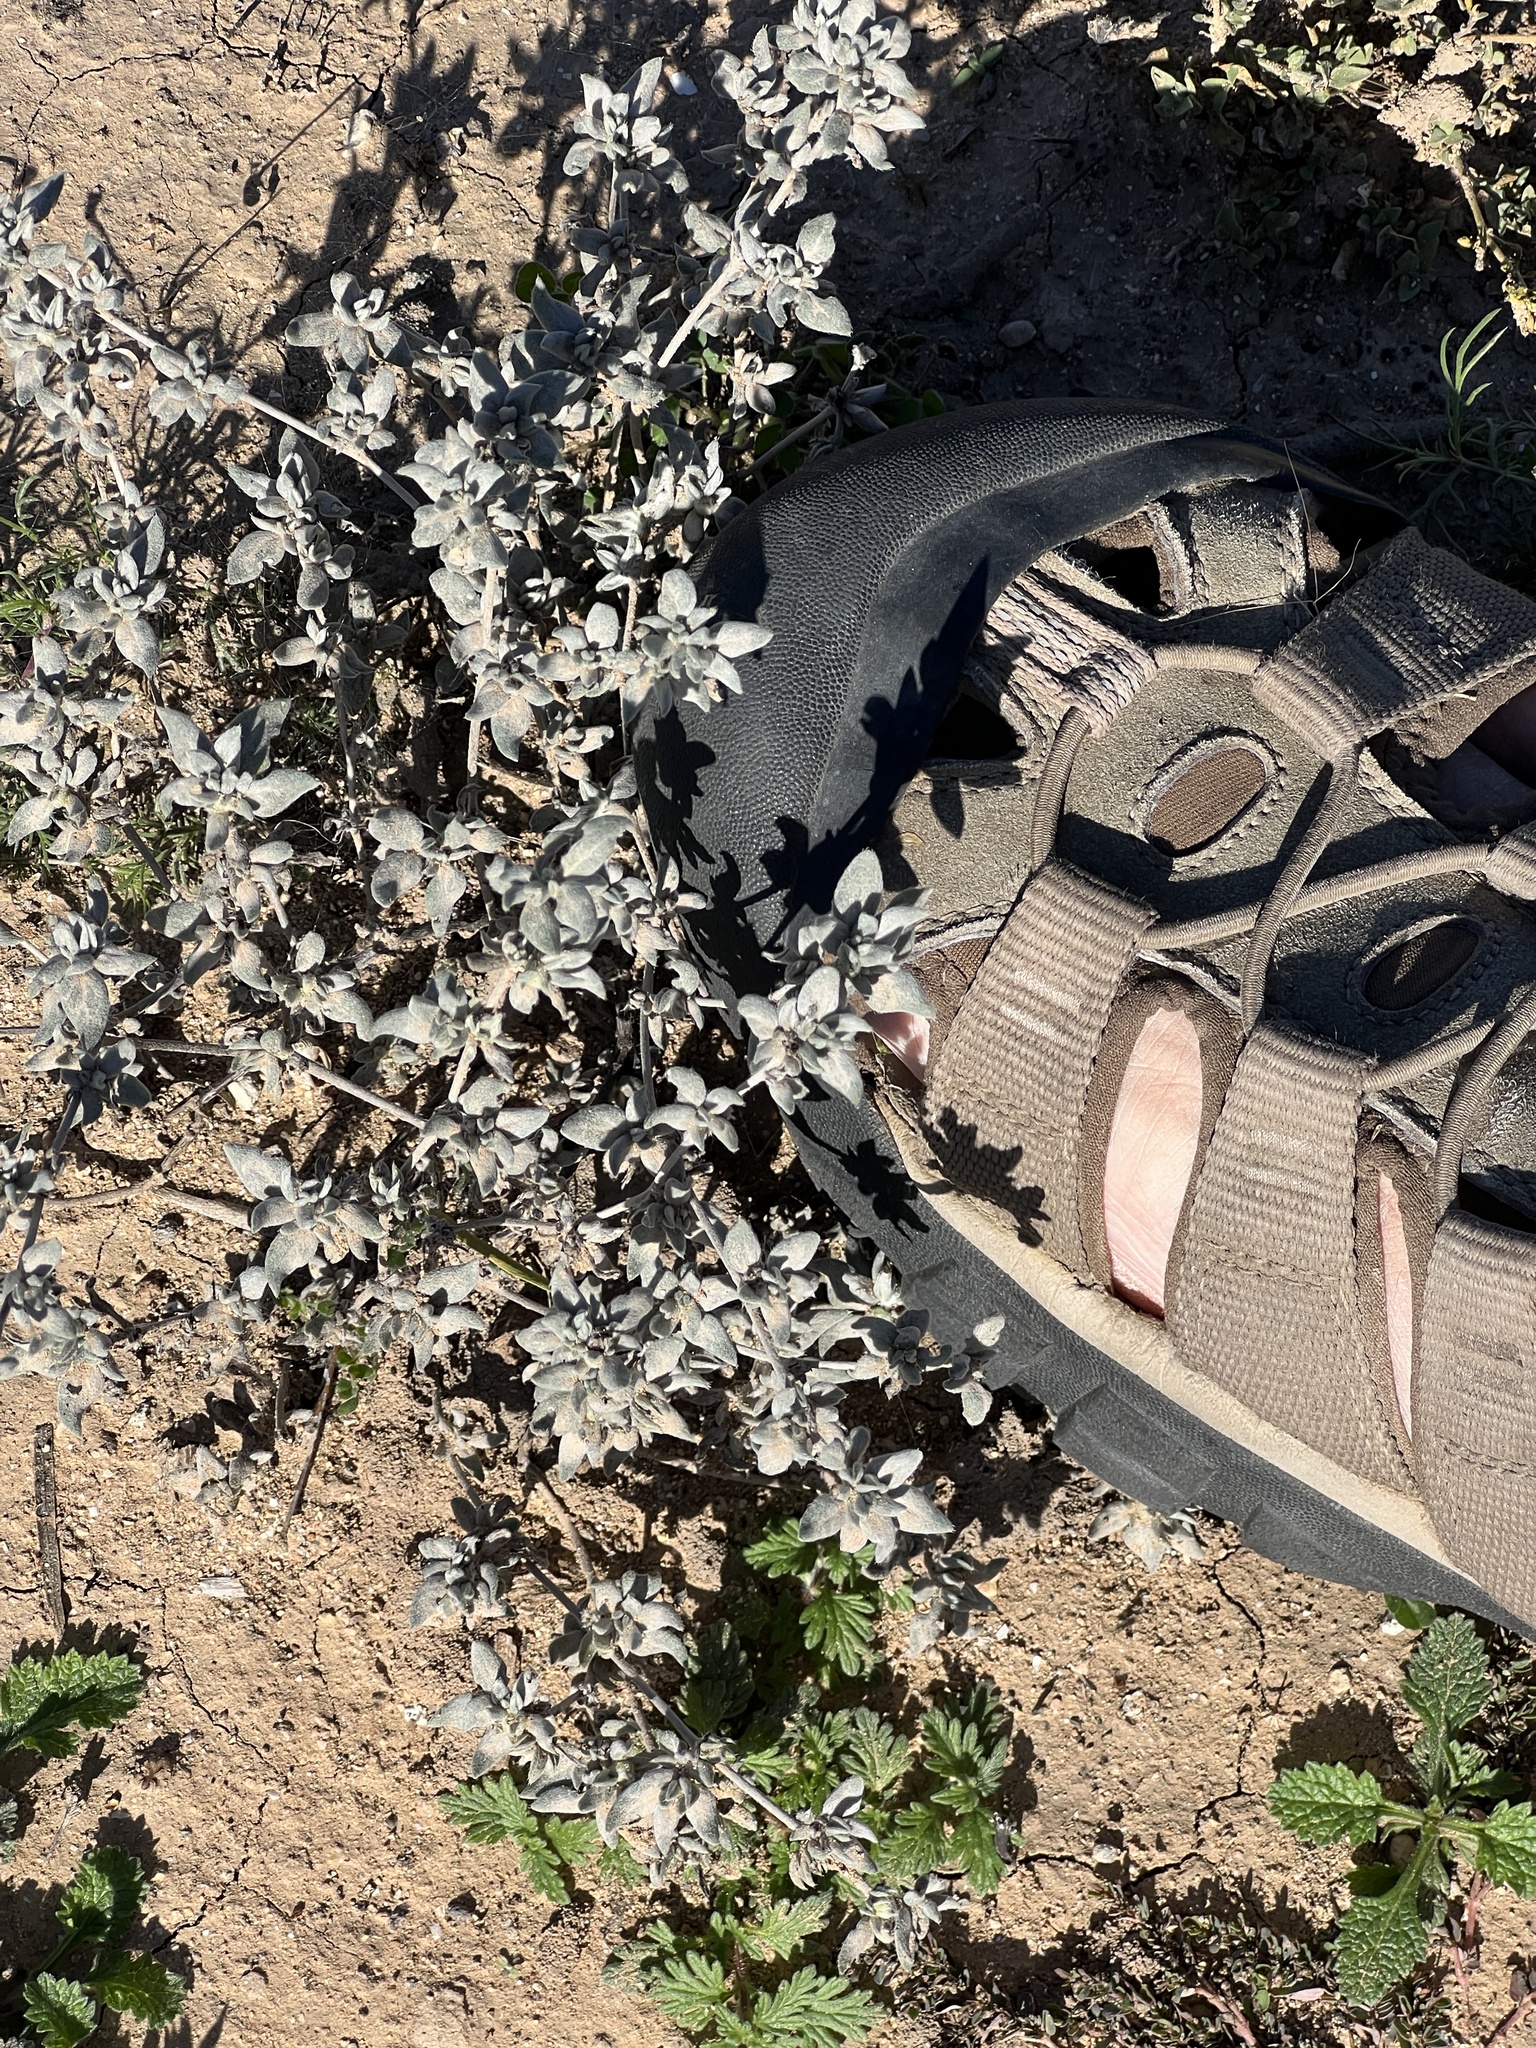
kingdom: Plantae
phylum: Tracheophyta
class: Magnoliopsida
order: Boraginales
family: Ehretiaceae
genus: Tiquilia
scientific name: Tiquilia canescens
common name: Hairy tiquilia
